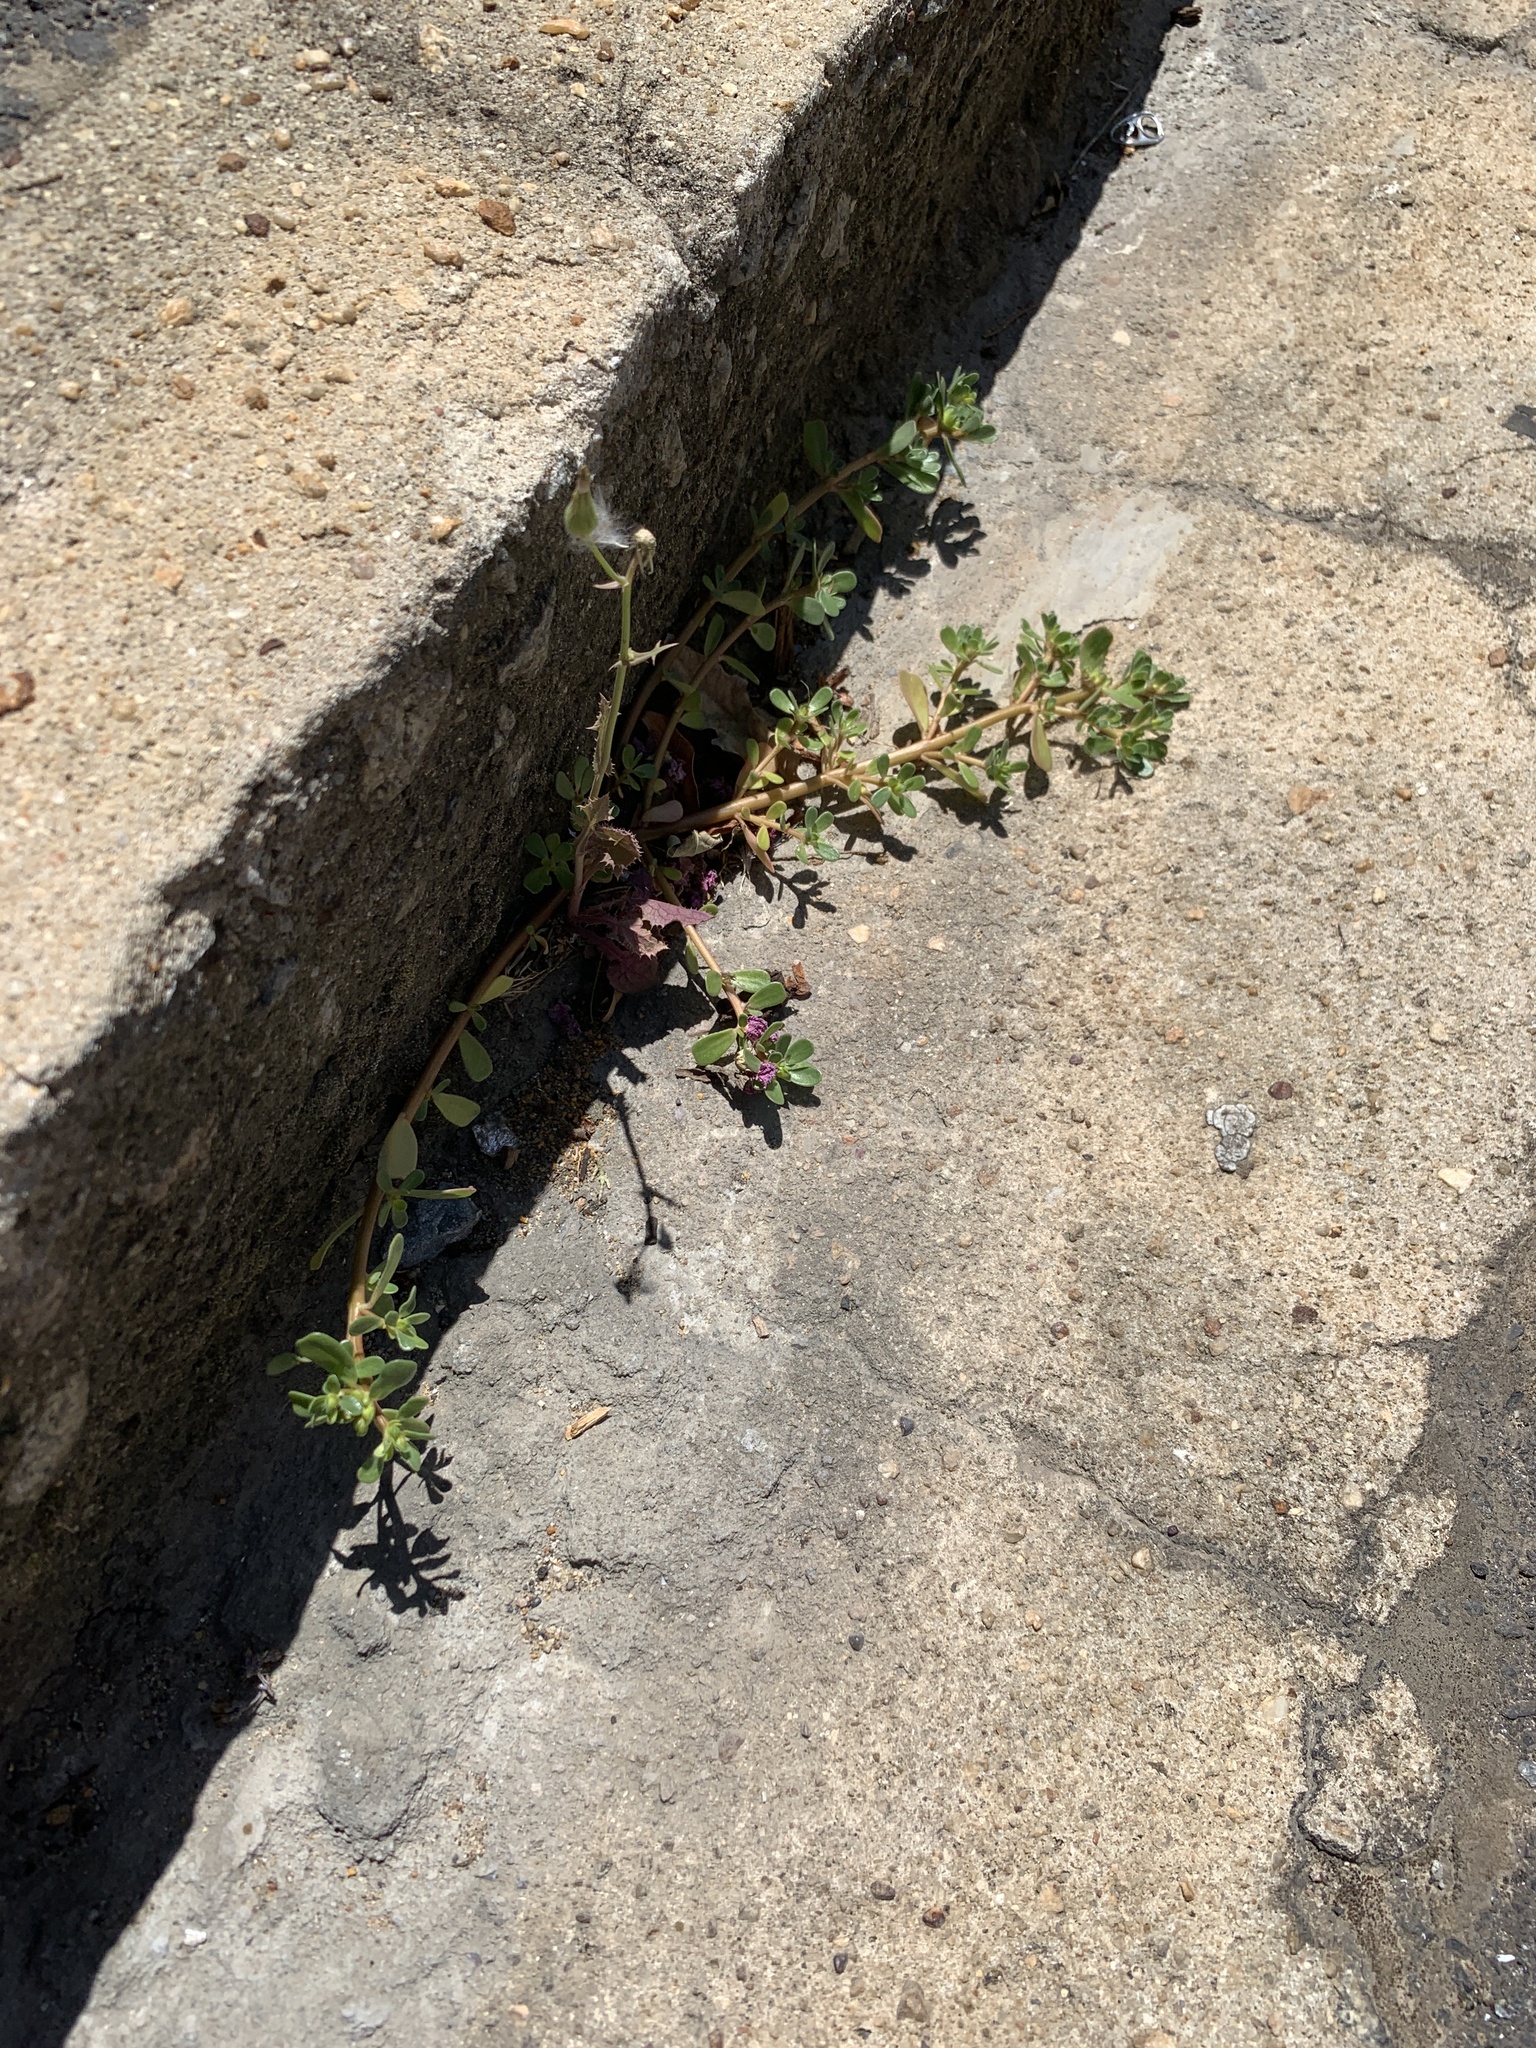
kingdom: Plantae
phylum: Tracheophyta
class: Magnoliopsida
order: Caryophyllales
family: Portulacaceae
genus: Portulaca
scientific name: Portulaca oleracea
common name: Common purslane
